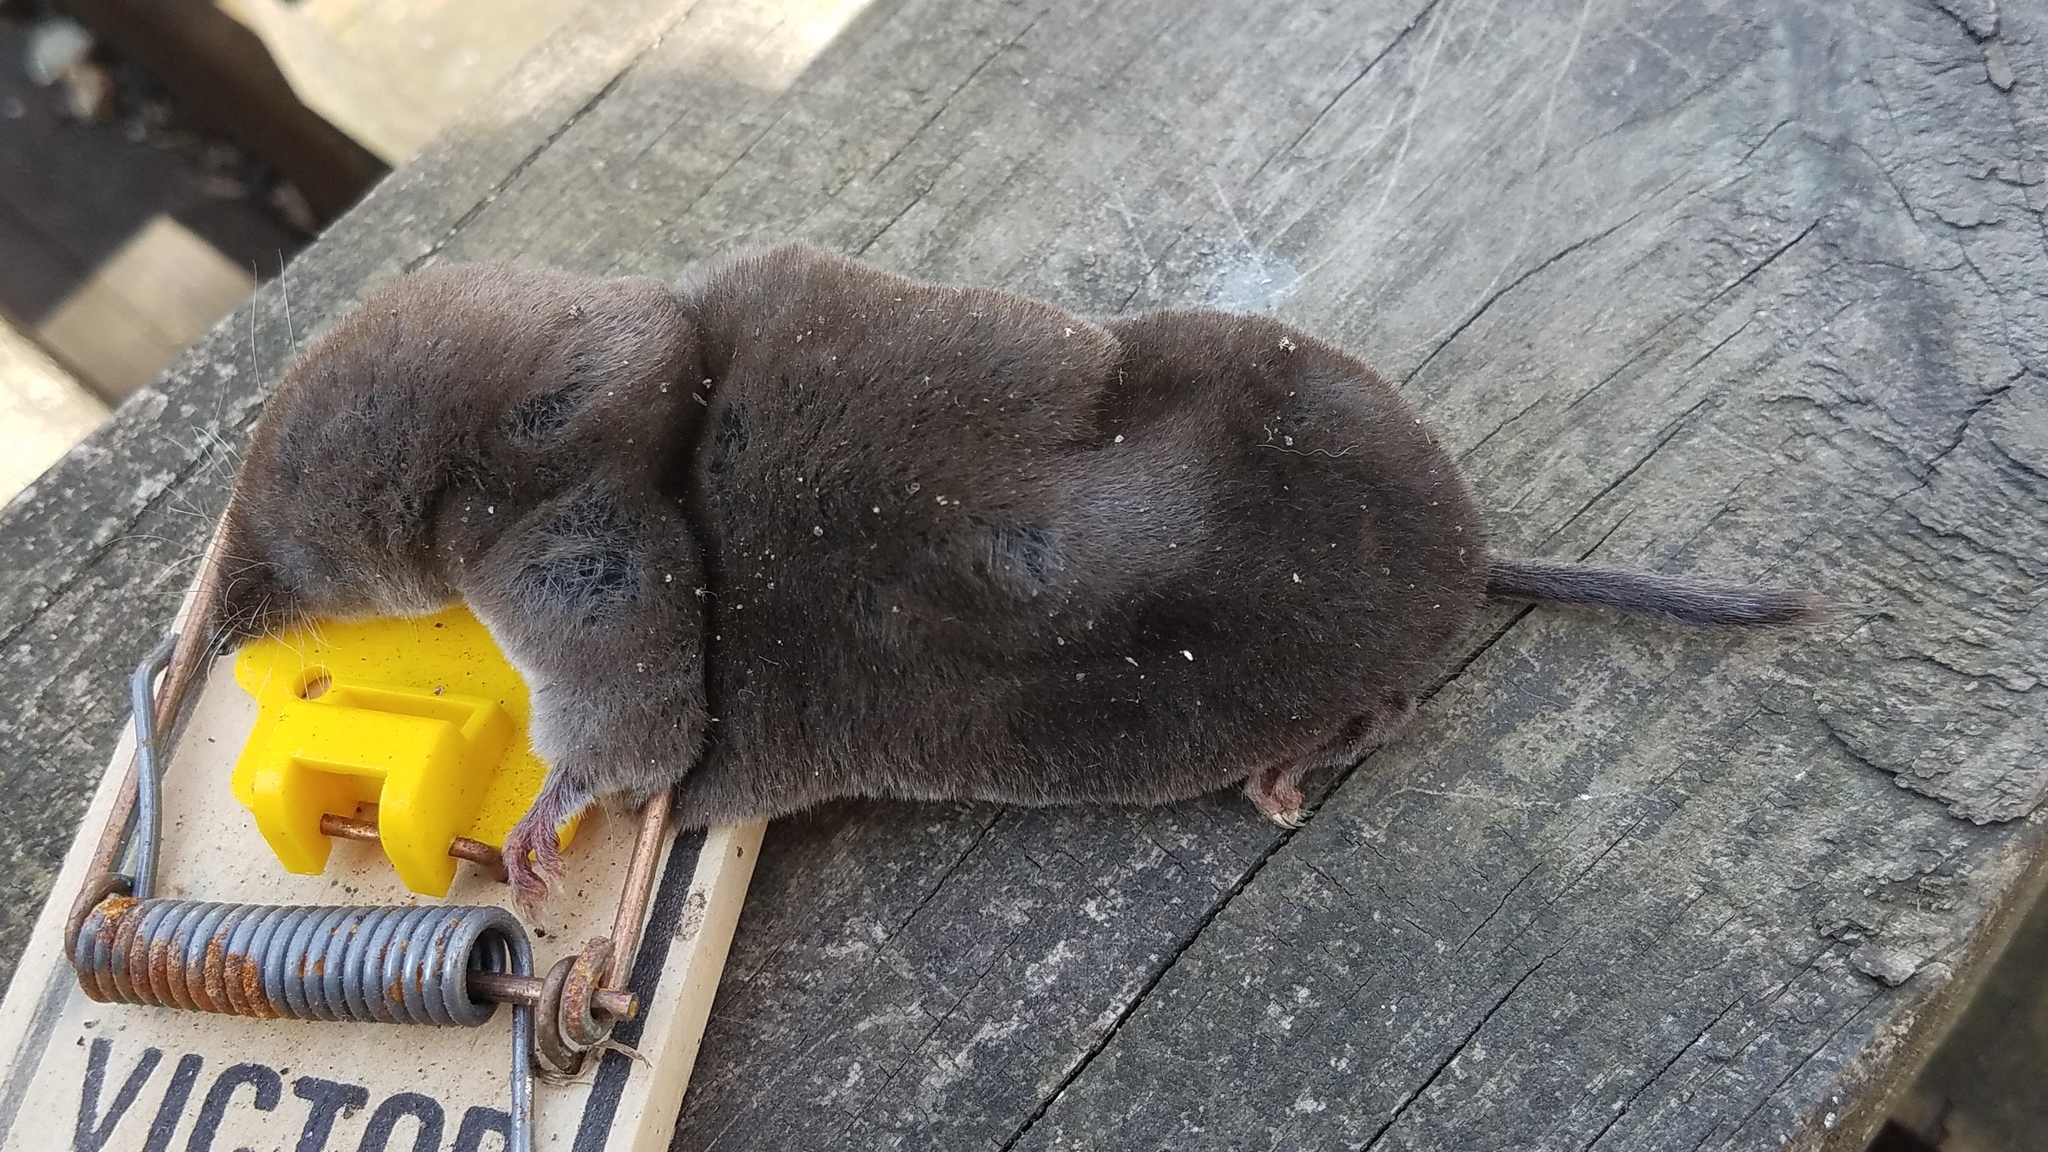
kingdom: Animalia
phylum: Chordata
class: Mammalia
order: Soricomorpha
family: Soricidae
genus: Blarina
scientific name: Blarina brevicauda
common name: Northern short-tailed shrew
